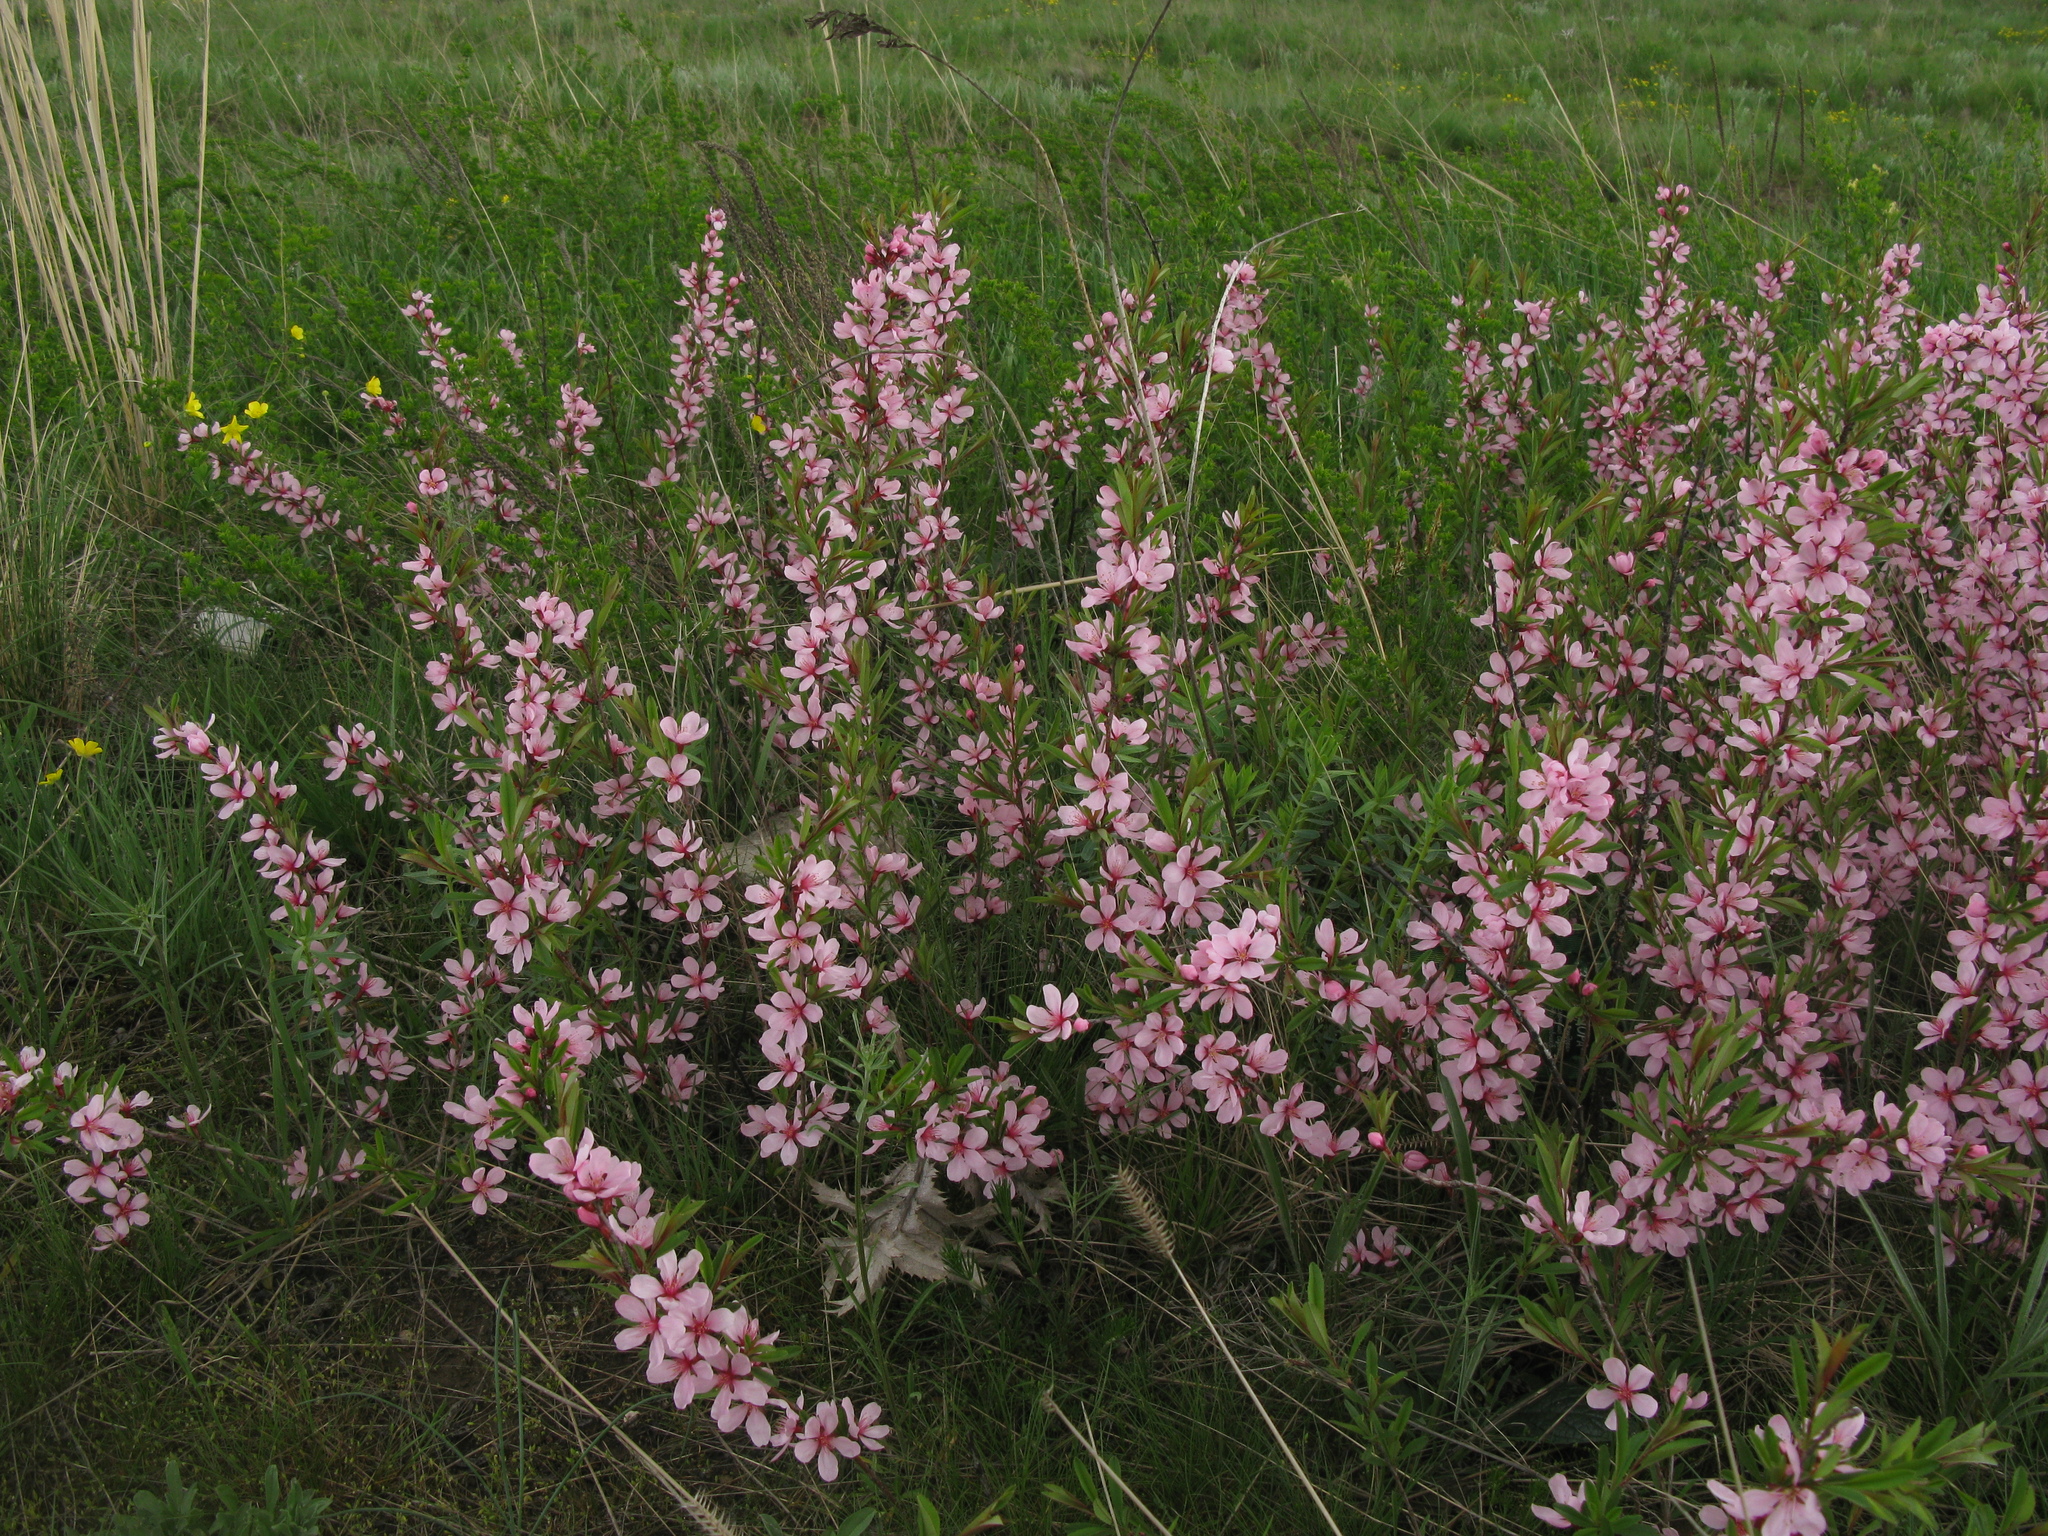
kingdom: Plantae
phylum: Tracheophyta
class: Magnoliopsida
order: Rosales
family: Rosaceae
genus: Prunus
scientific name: Prunus tenella
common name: Dwarf russian almond
